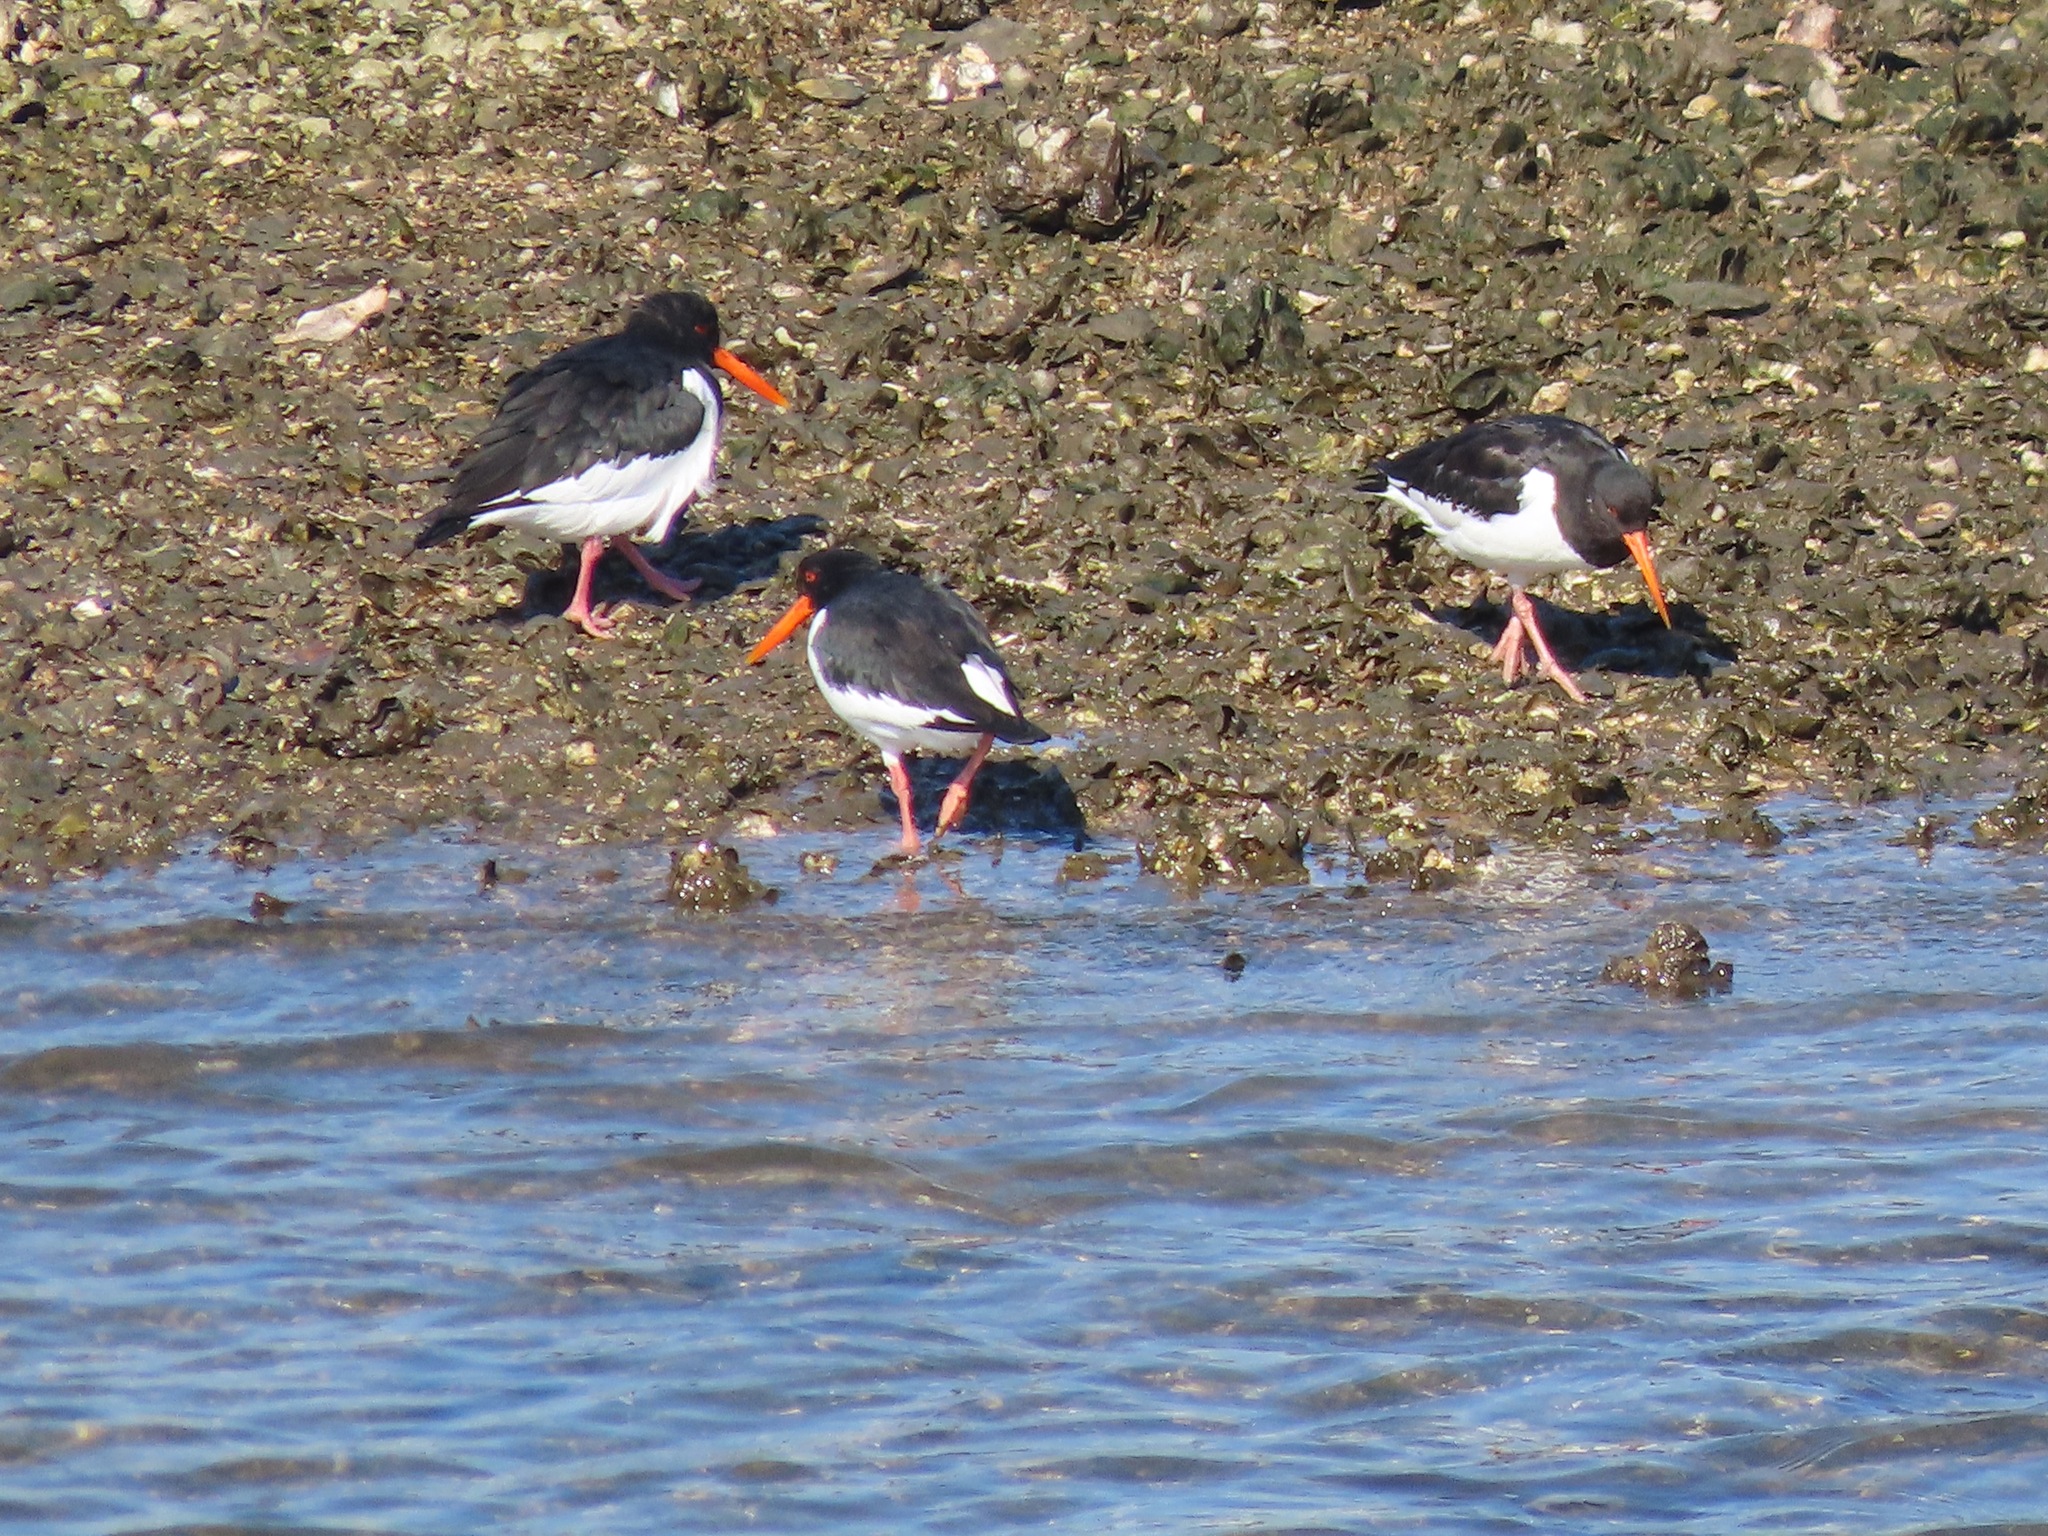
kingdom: Animalia
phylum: Chordata
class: Aves
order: Charadriiformes
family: Haematopodidae
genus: Haematopus
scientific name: Haematopus ostralegus
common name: Eurasian oystercatcher
